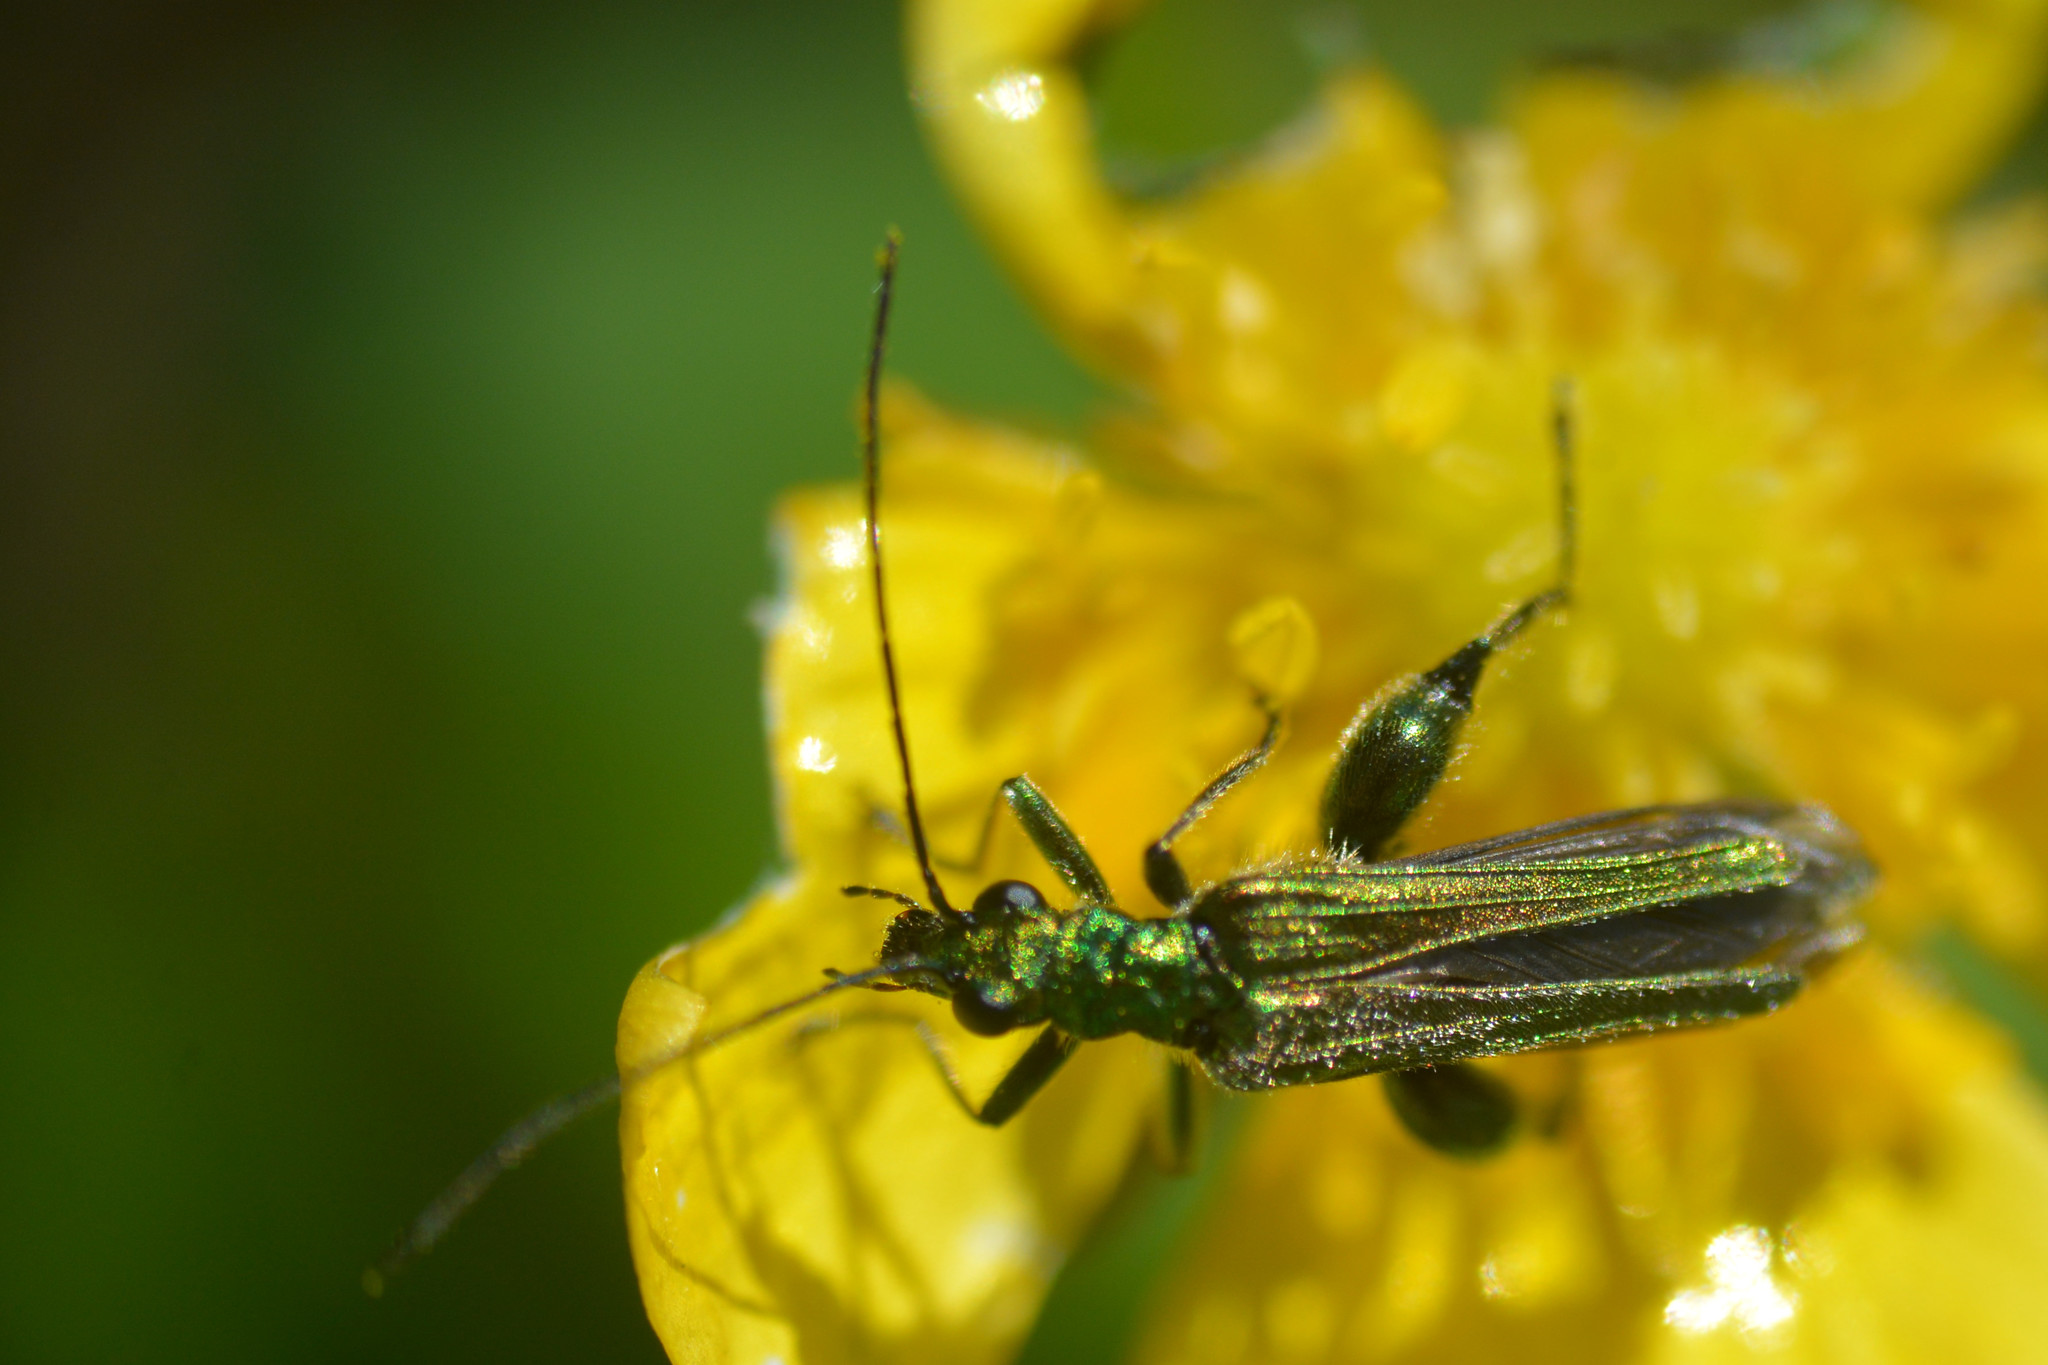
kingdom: Animalia
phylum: Arthropoda
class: Insecta
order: Coleoptera
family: Oedemeridae
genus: Oedemera
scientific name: Oedemera nobilis
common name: Swollen-thighed beetle
